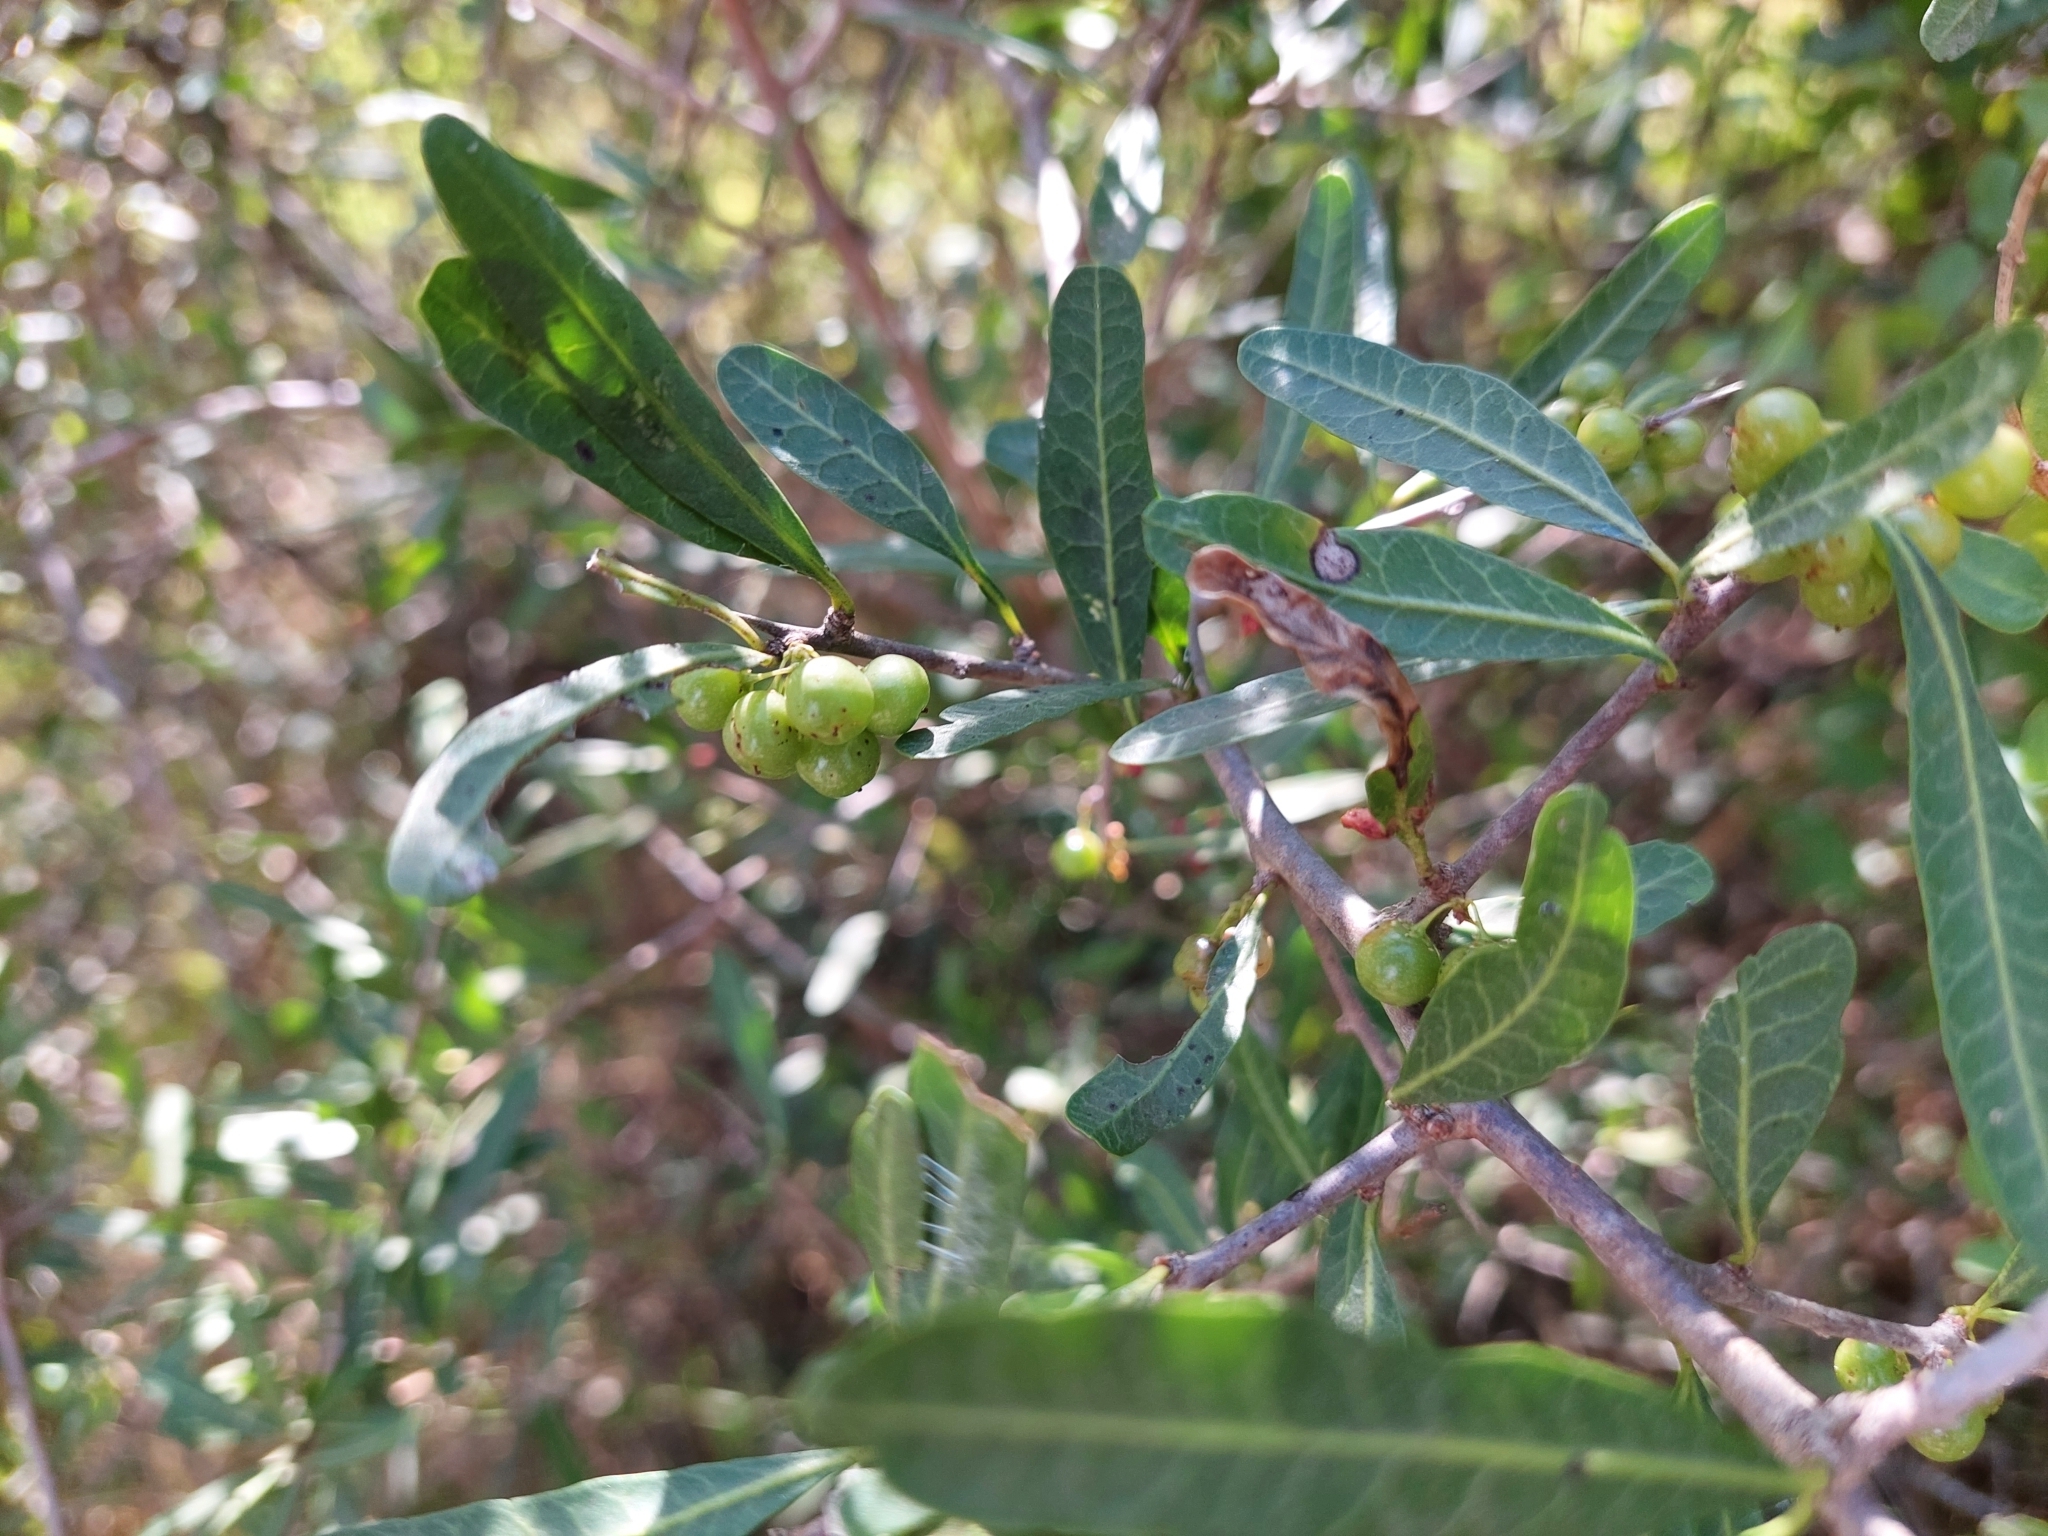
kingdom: Plantae
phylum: Tracheophyta
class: Magnoliopsida
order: Sapindales
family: Anacardiaceae
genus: Schinus
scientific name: Schinus longifolia
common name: Longleaf peppertree
